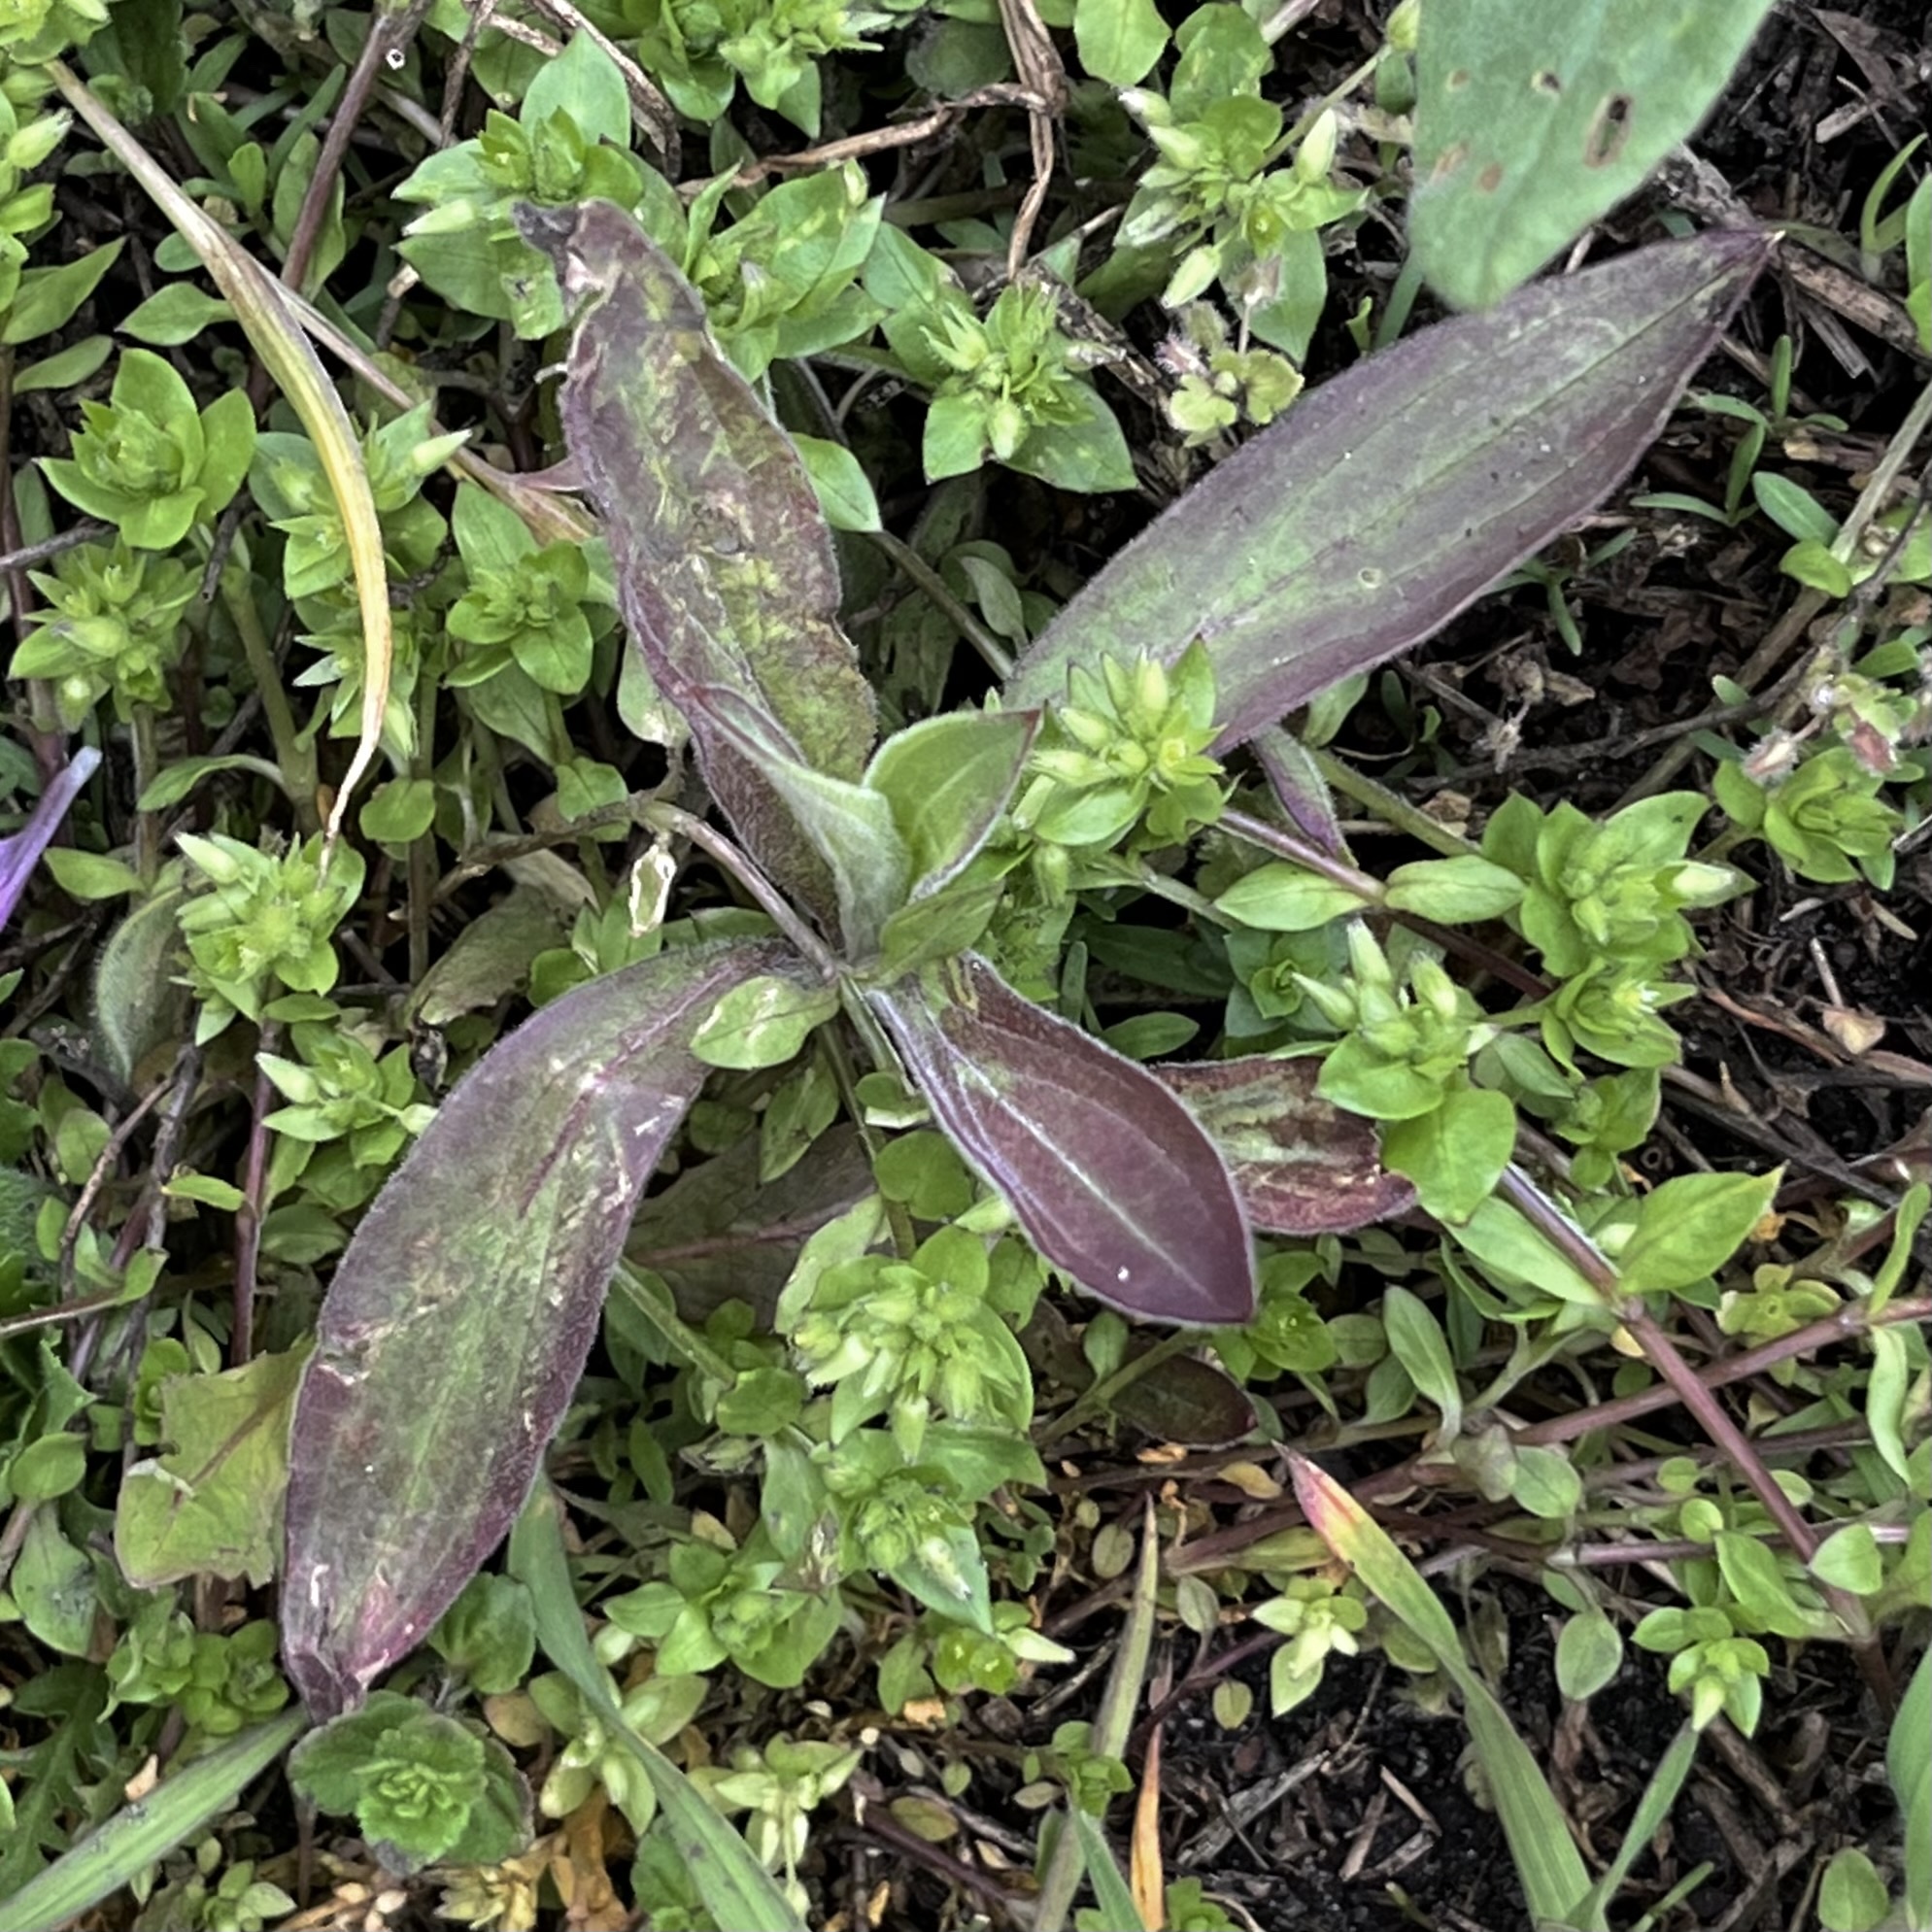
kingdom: Plantae
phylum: Tracheophyta
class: Magnoliopsida
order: Caryophyllales
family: Caryophyllaceae
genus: Silene
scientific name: Silene latifolia
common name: White campion
